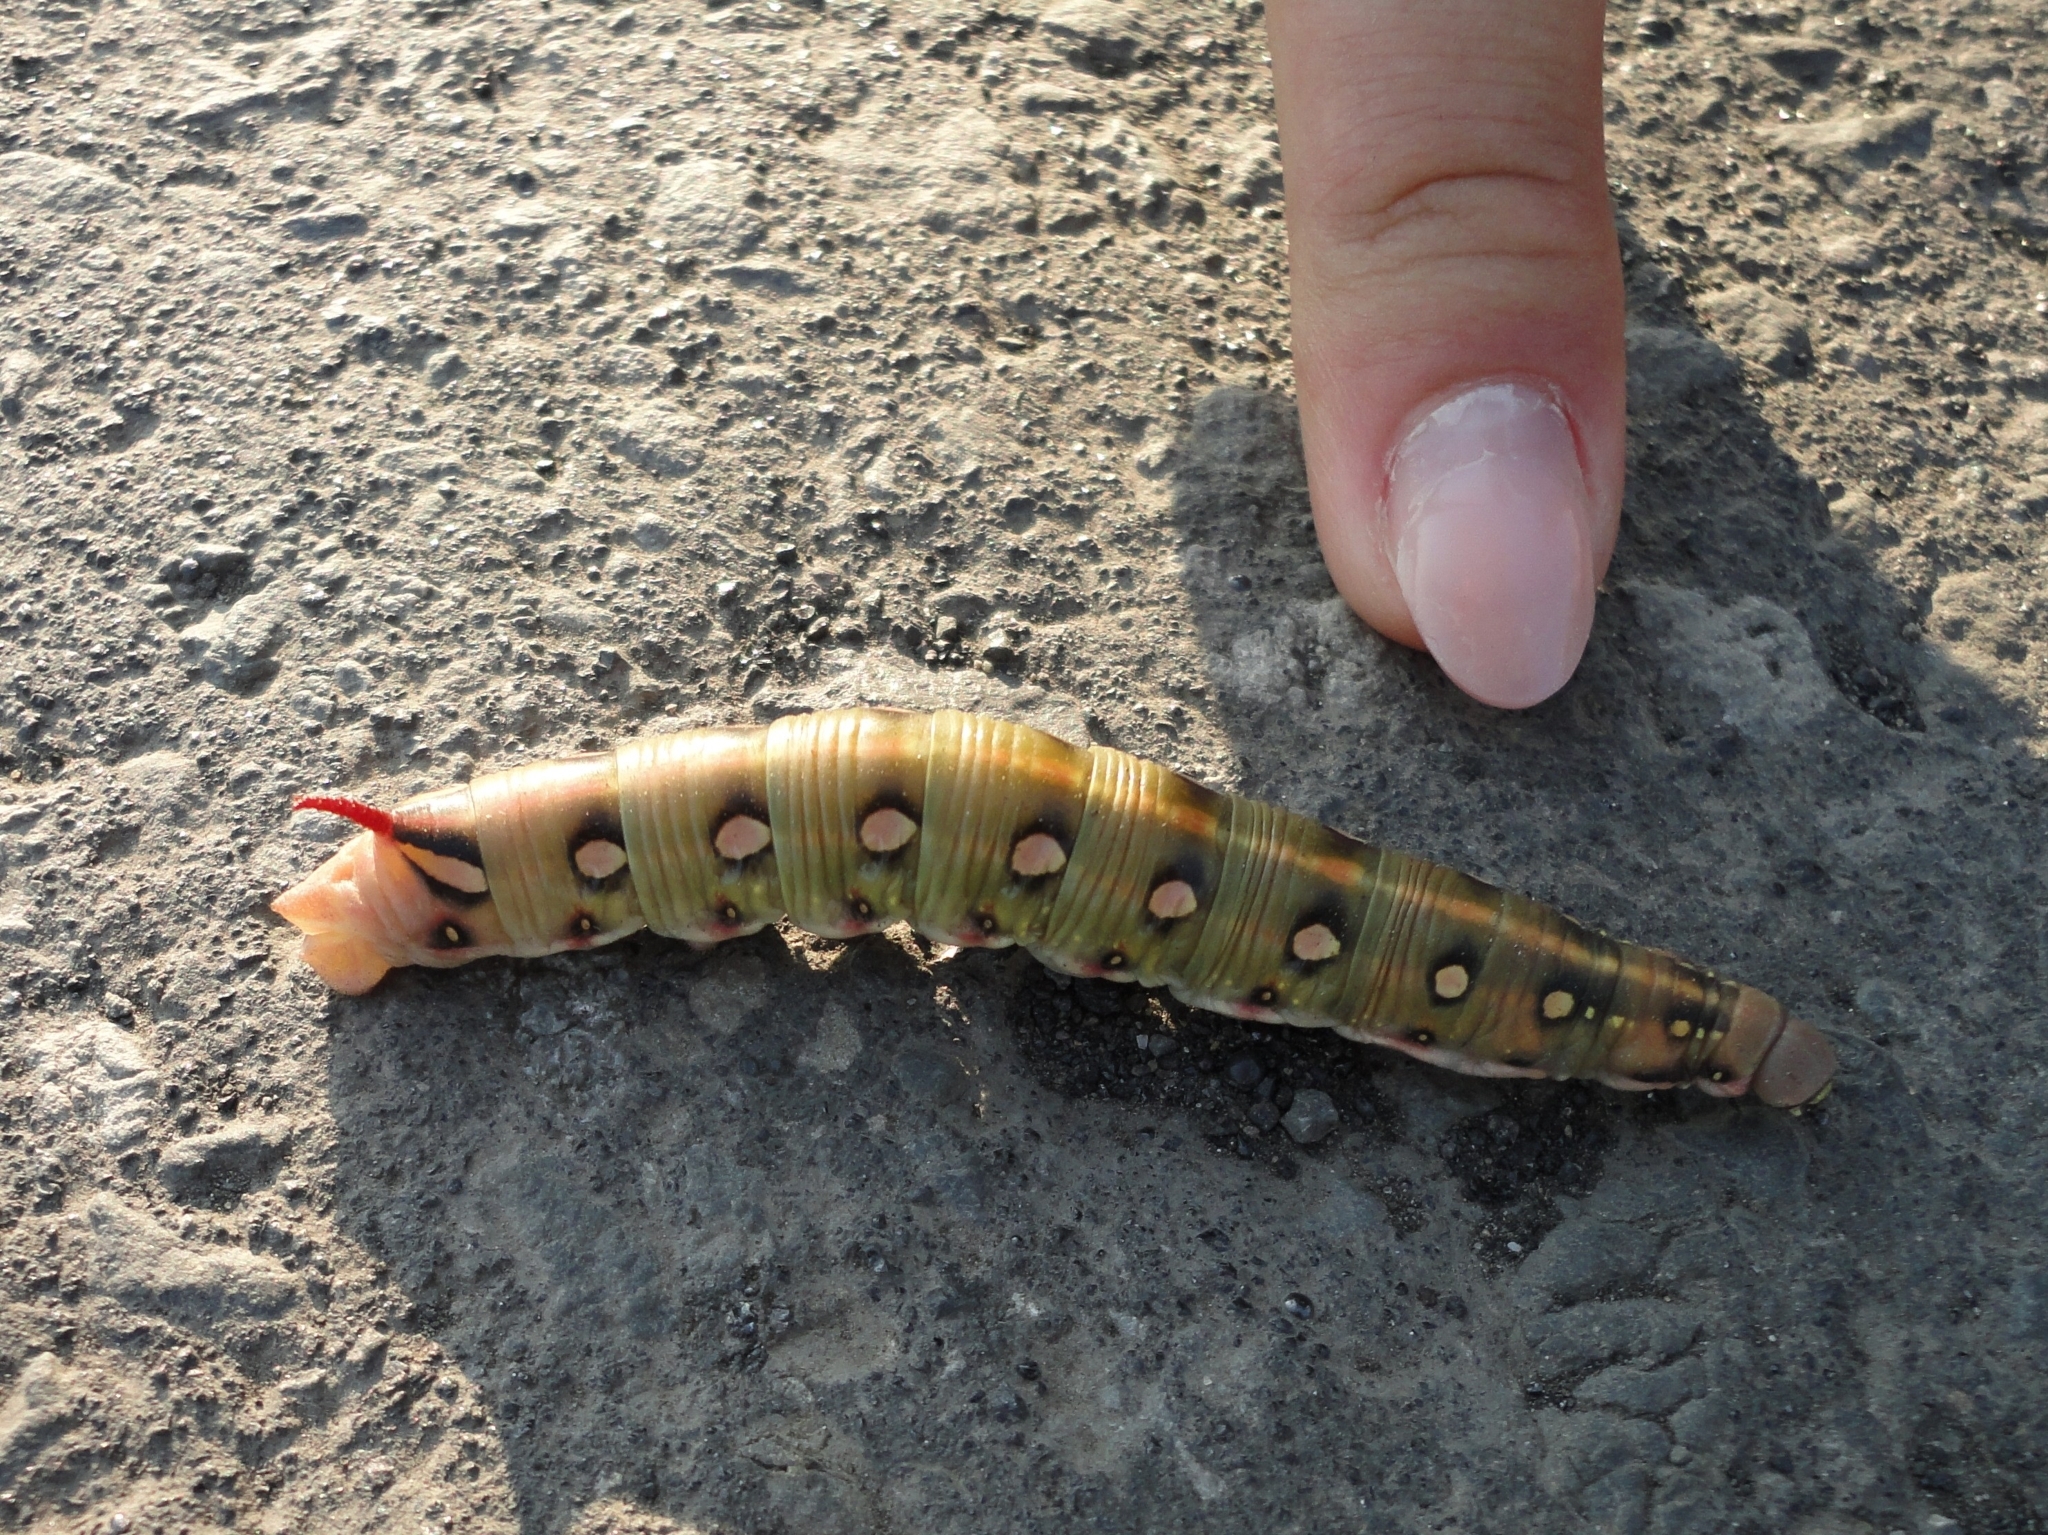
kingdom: Animalia
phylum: Arthropoda
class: Insecta
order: Lepidoptera
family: Sphingidae
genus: Hyles
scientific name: Hyles gallii
